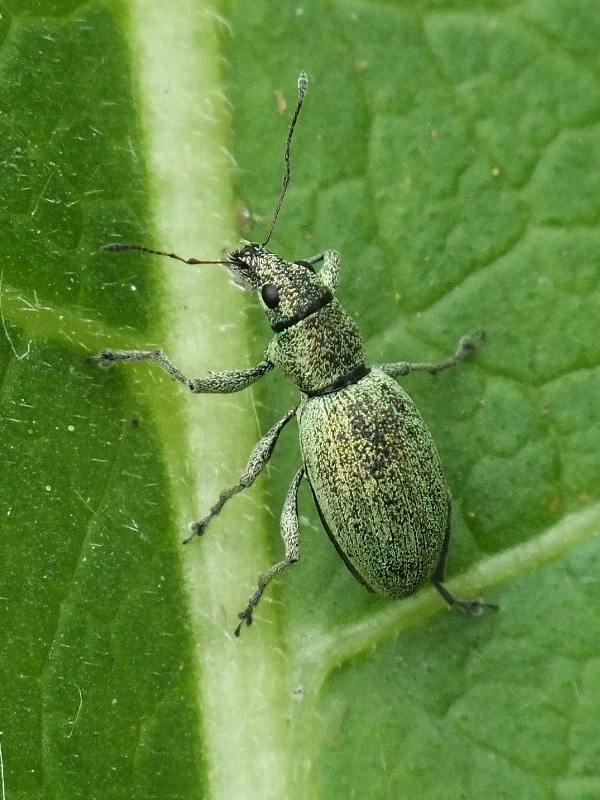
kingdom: Animalia
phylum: Arthropoda
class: Insecta
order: Coleoptera
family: Curculionidae
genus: Eusomus
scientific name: Eusomus ovulum
